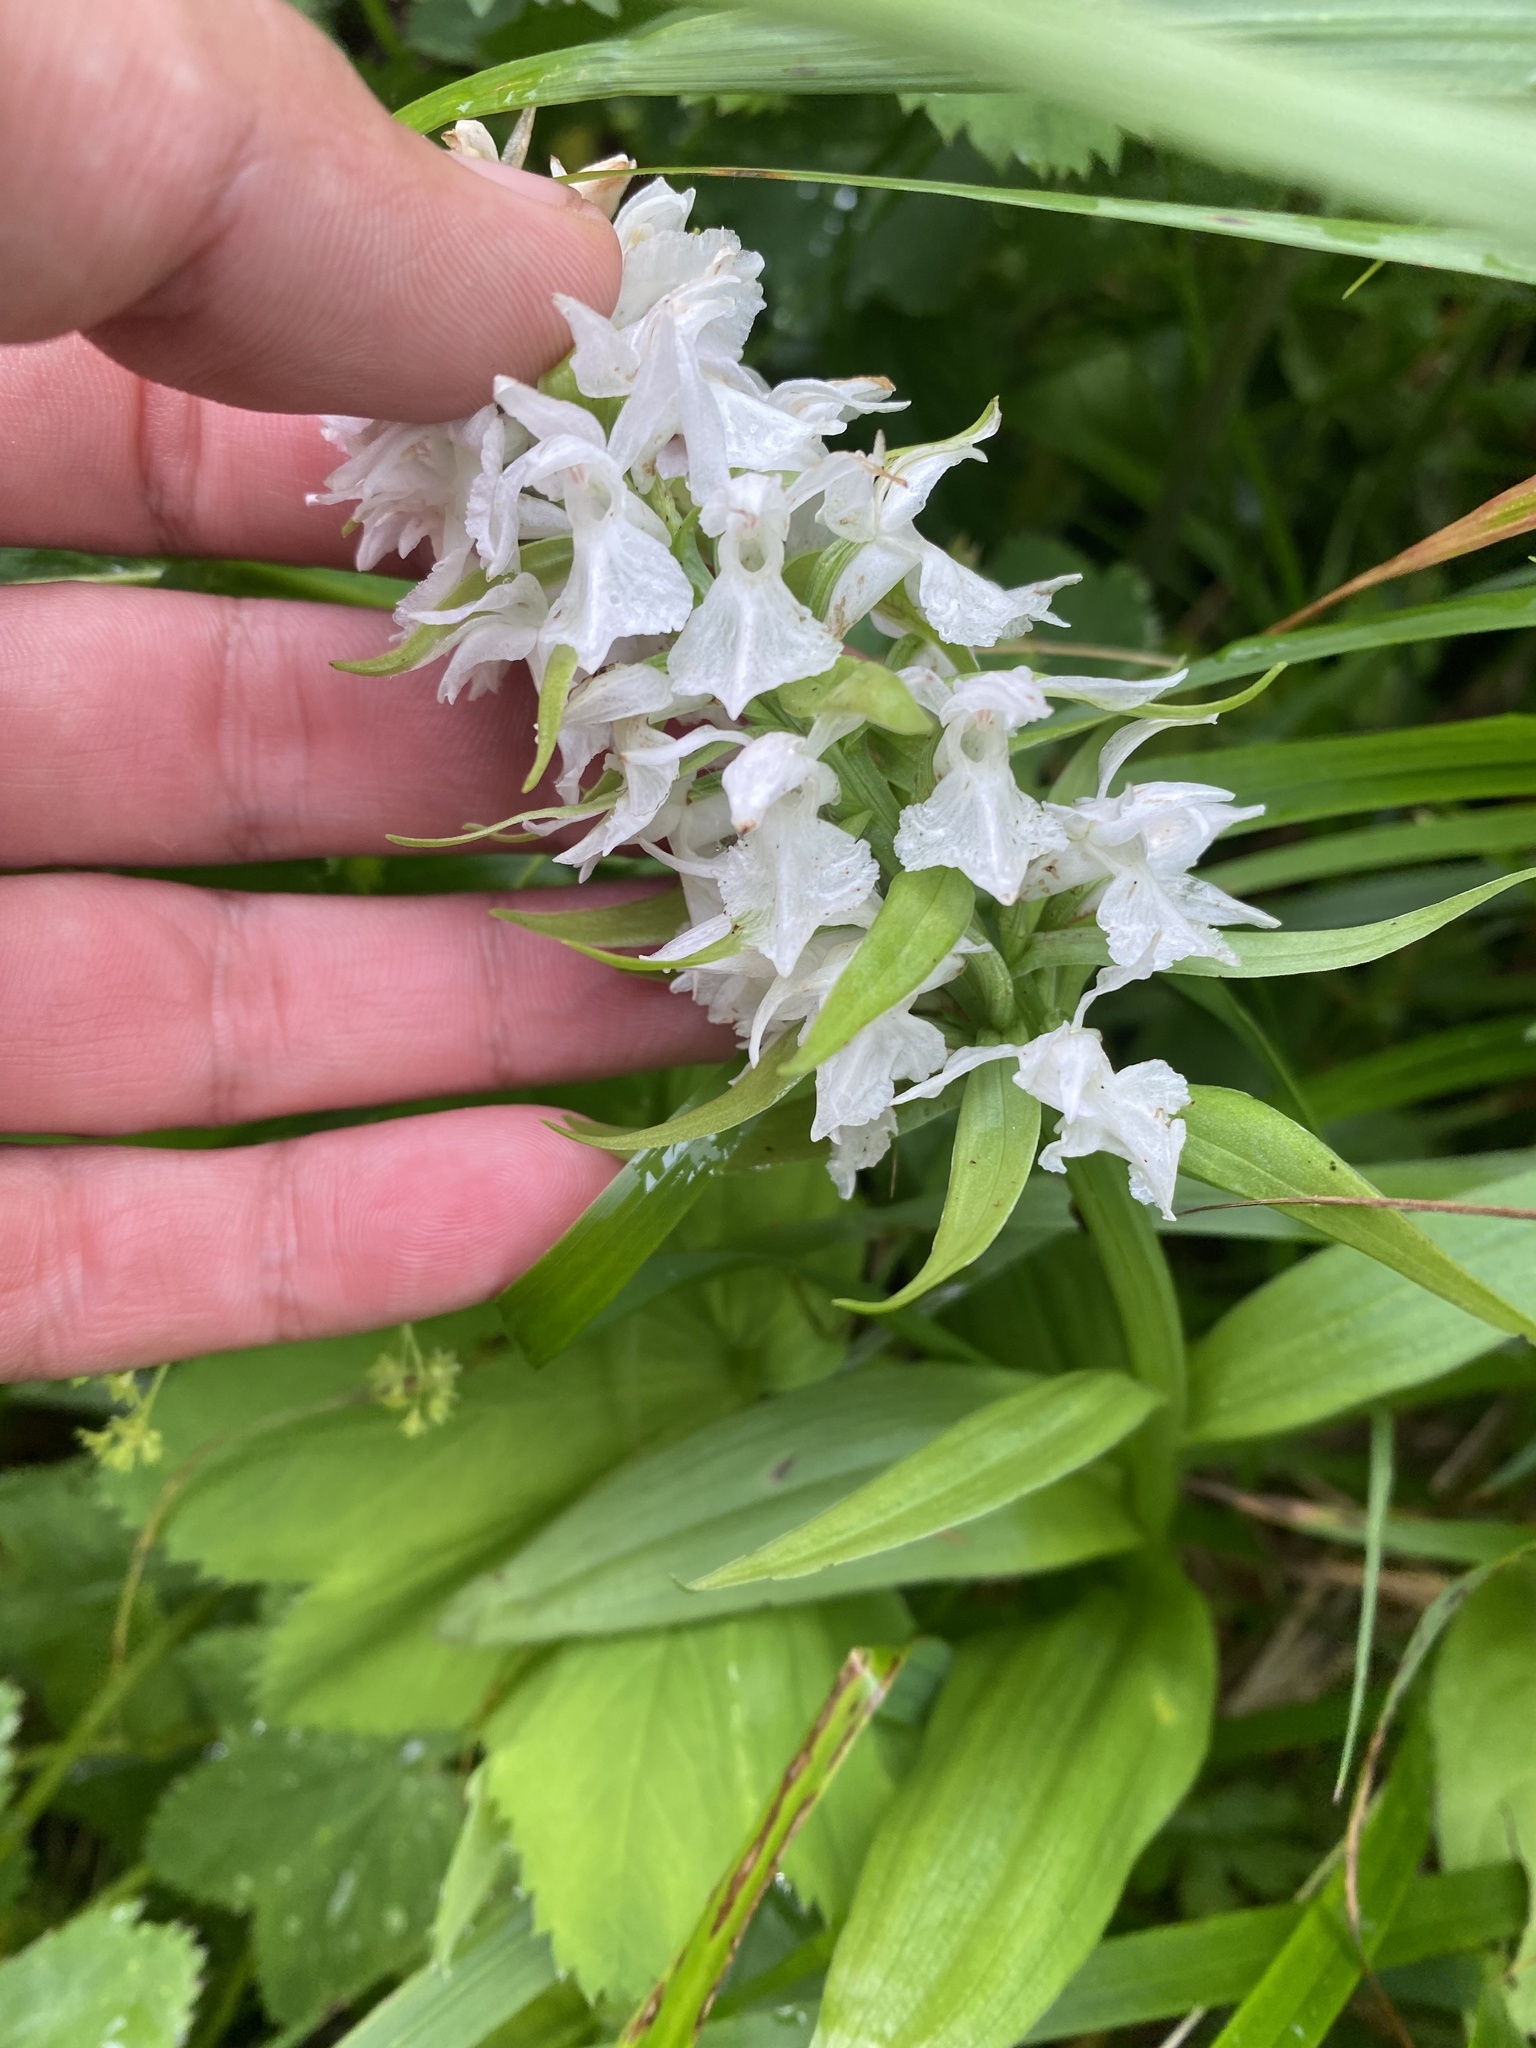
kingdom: Plantae
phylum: Tracheophyta
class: Liliopsida
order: Asparagales
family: Orchidaceae
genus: Dactylorhiza
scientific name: Dactylorhiza euxina
